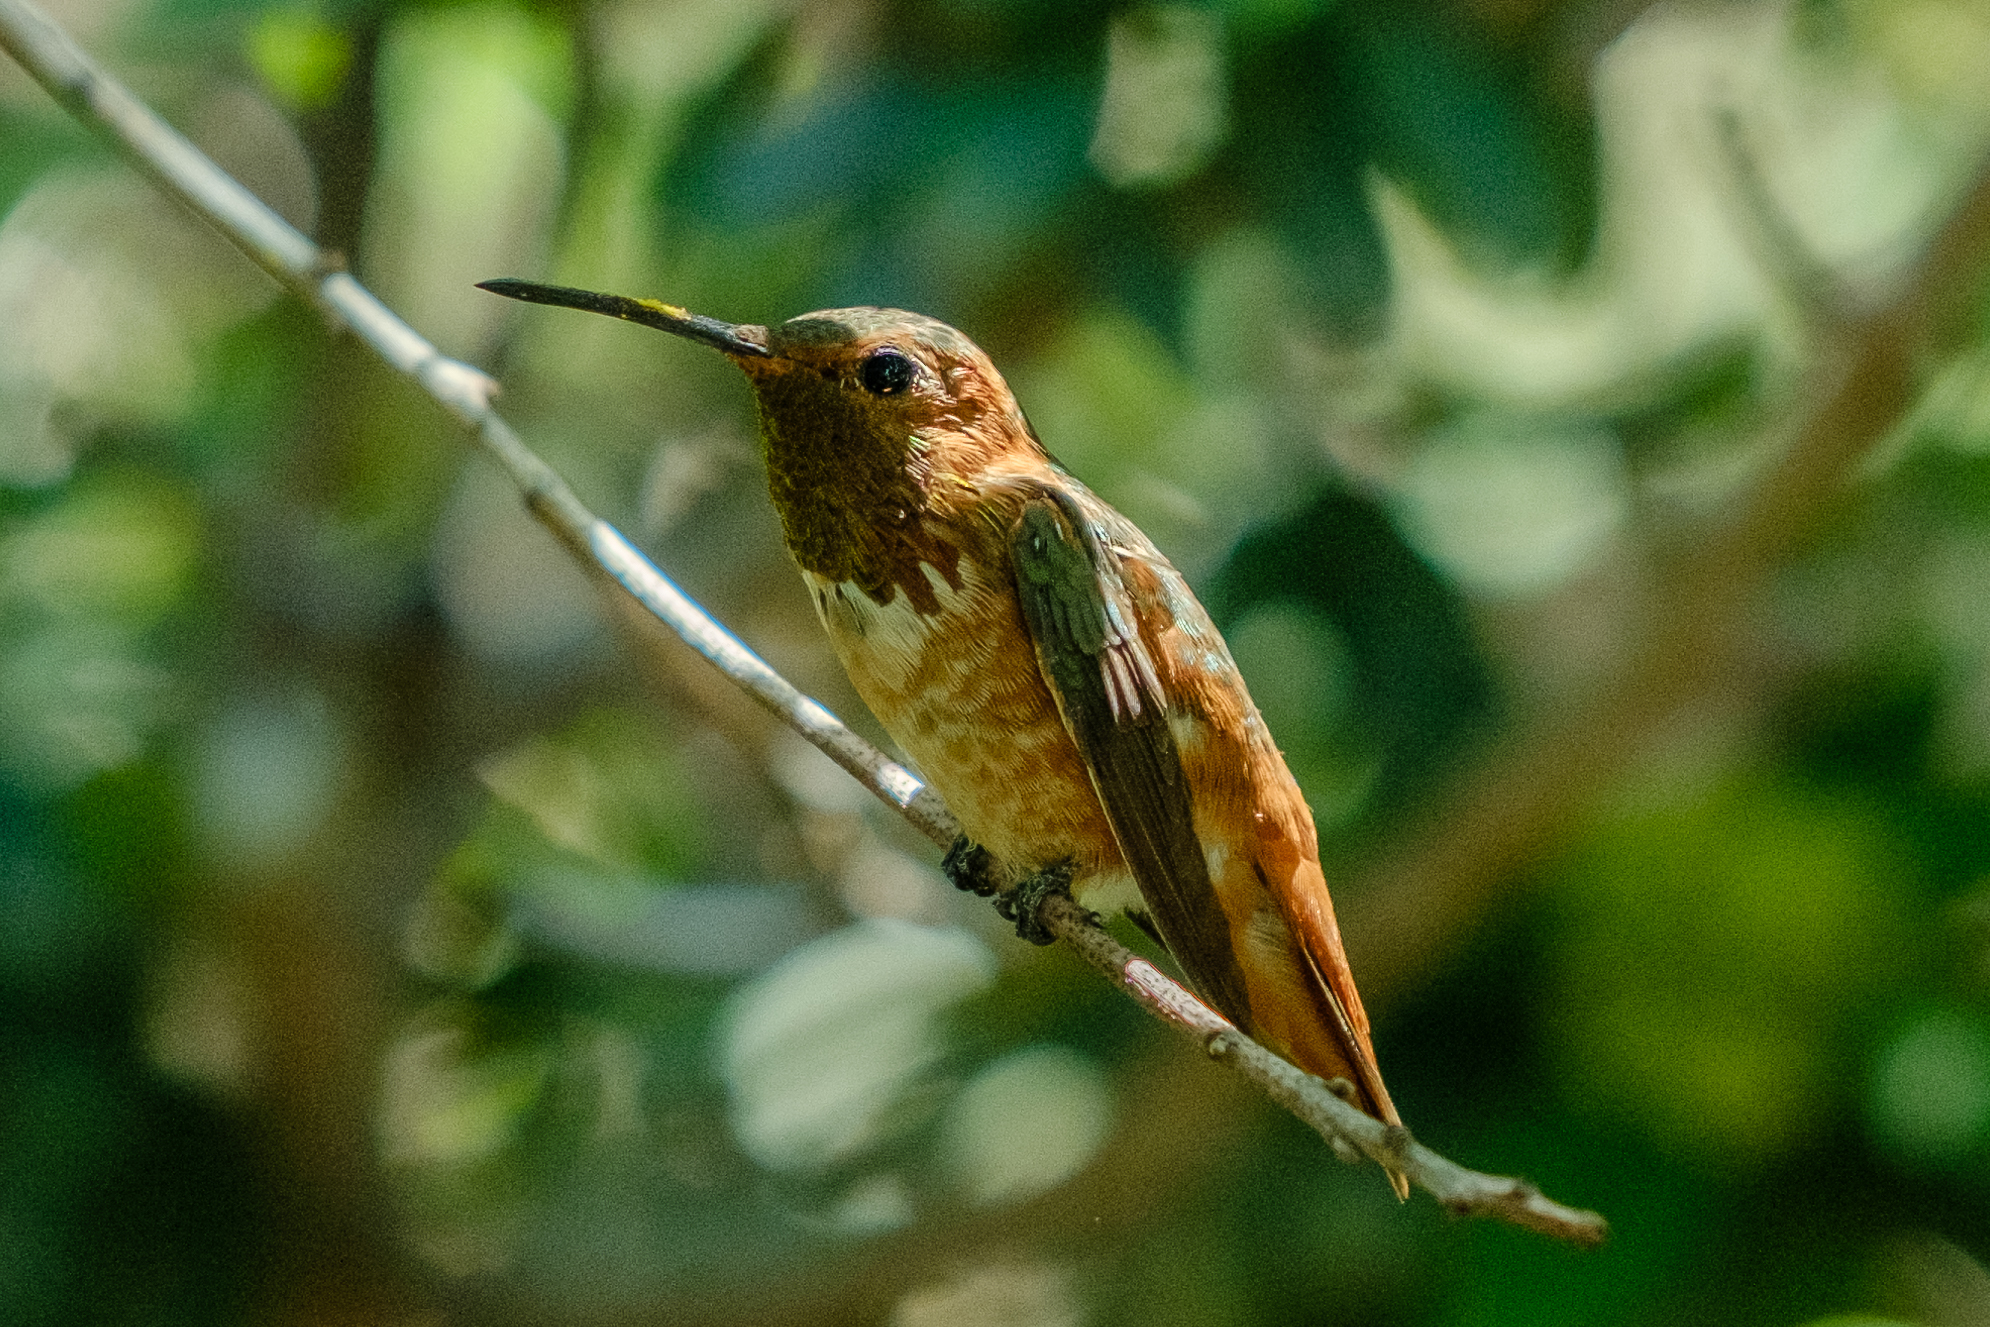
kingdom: Animalia
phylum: Chordata
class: Aves
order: Apodiformes
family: Trochilidae
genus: Selasphorus
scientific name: Selasphorus sasin
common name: Allen's hummingbird
